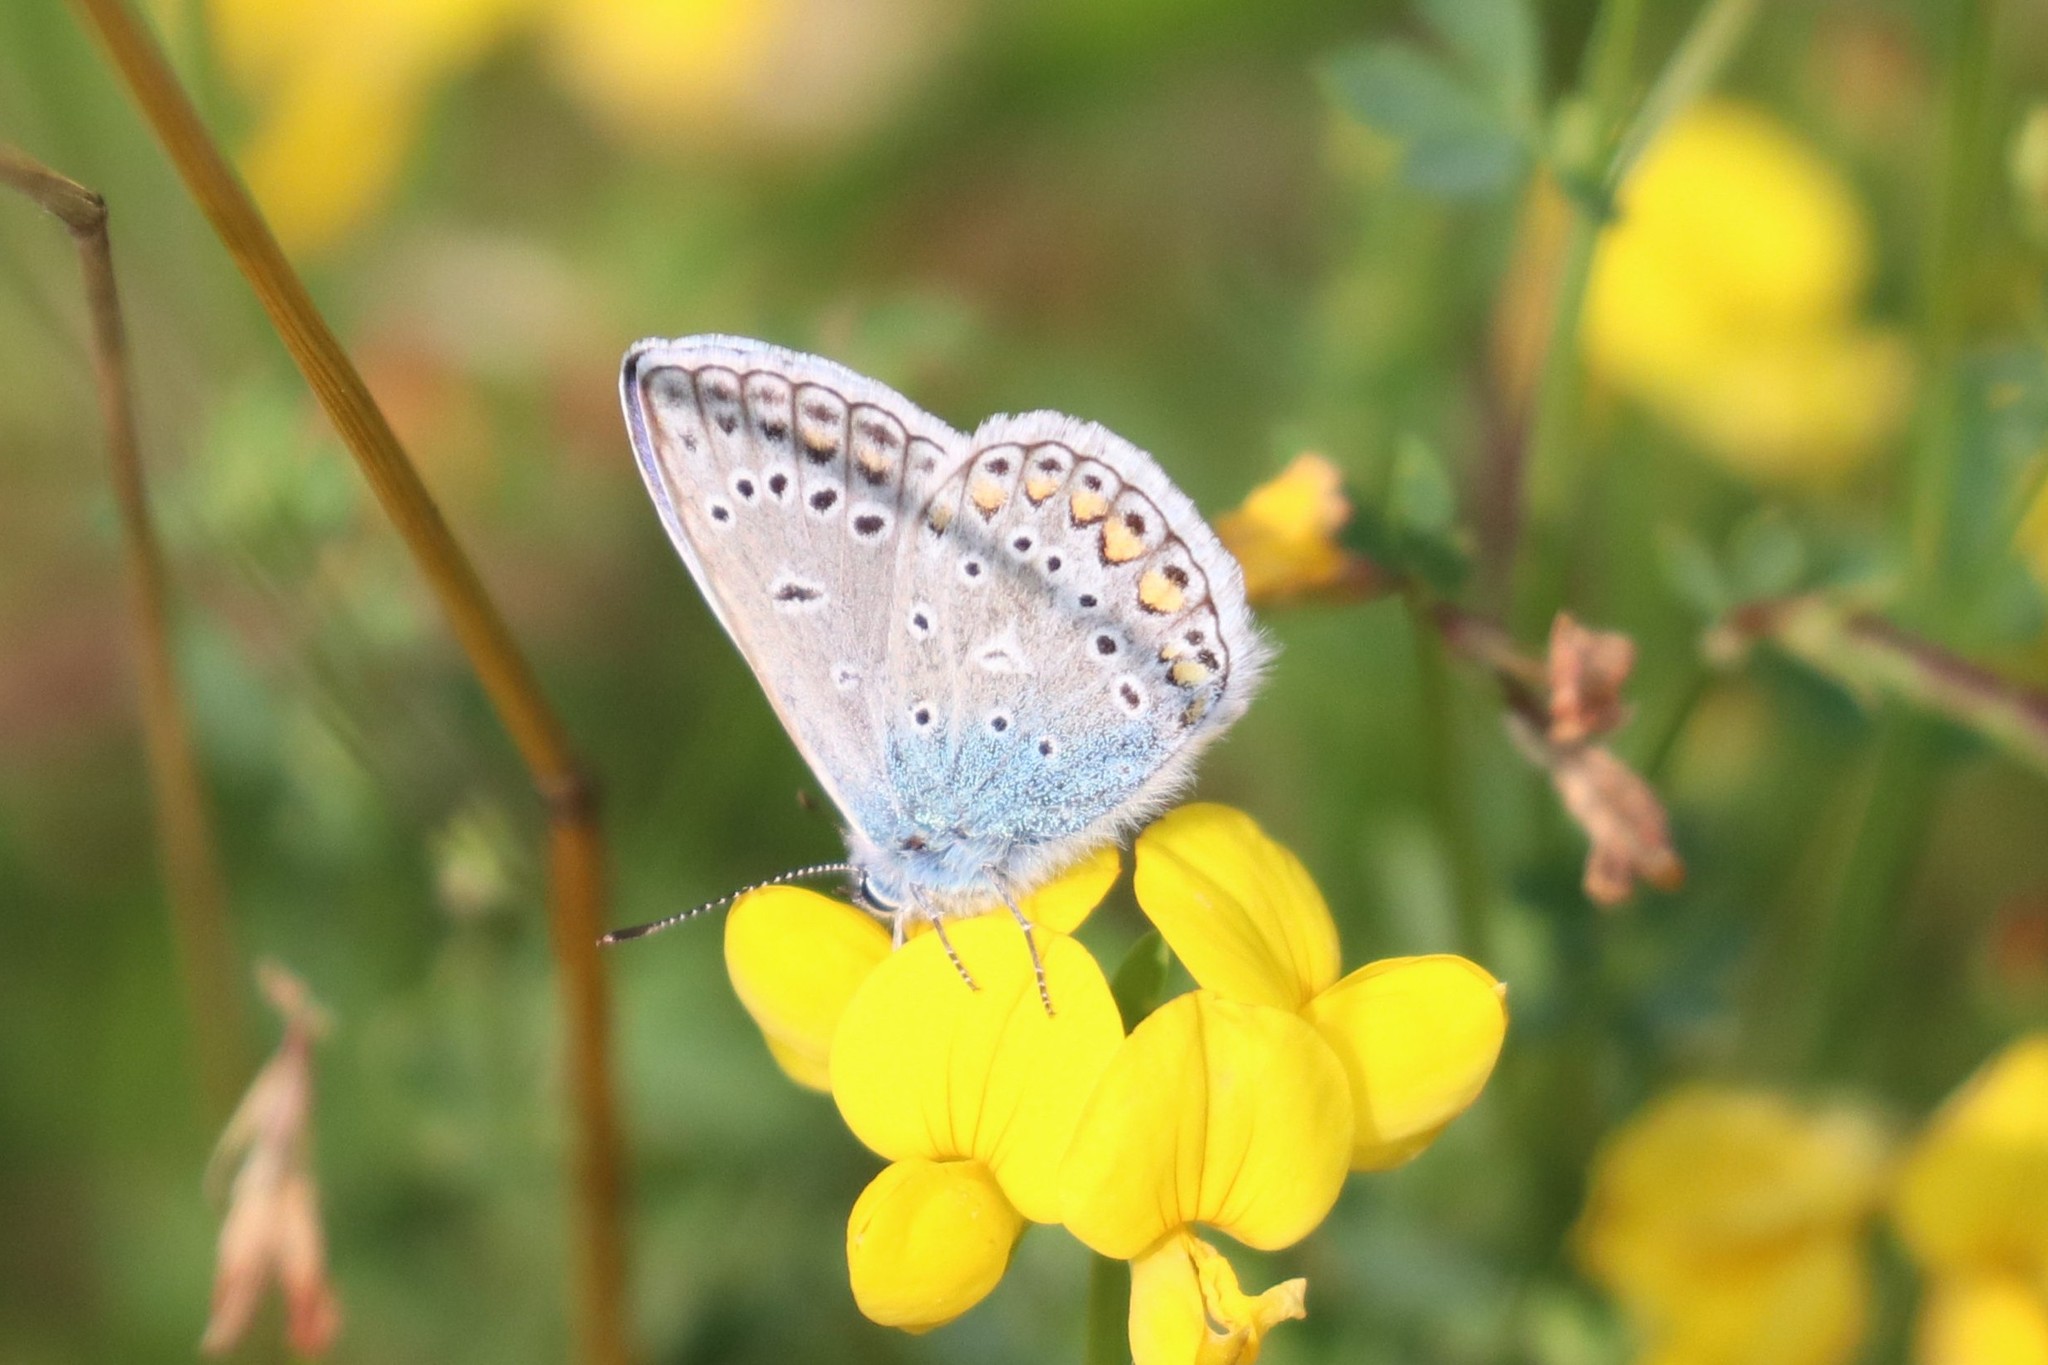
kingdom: Animalia
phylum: Arthropoda
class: Insecta
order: Lepidoptera
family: Lycaenidae
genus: Polyommatus
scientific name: Polyommatus icarus
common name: Common blue
